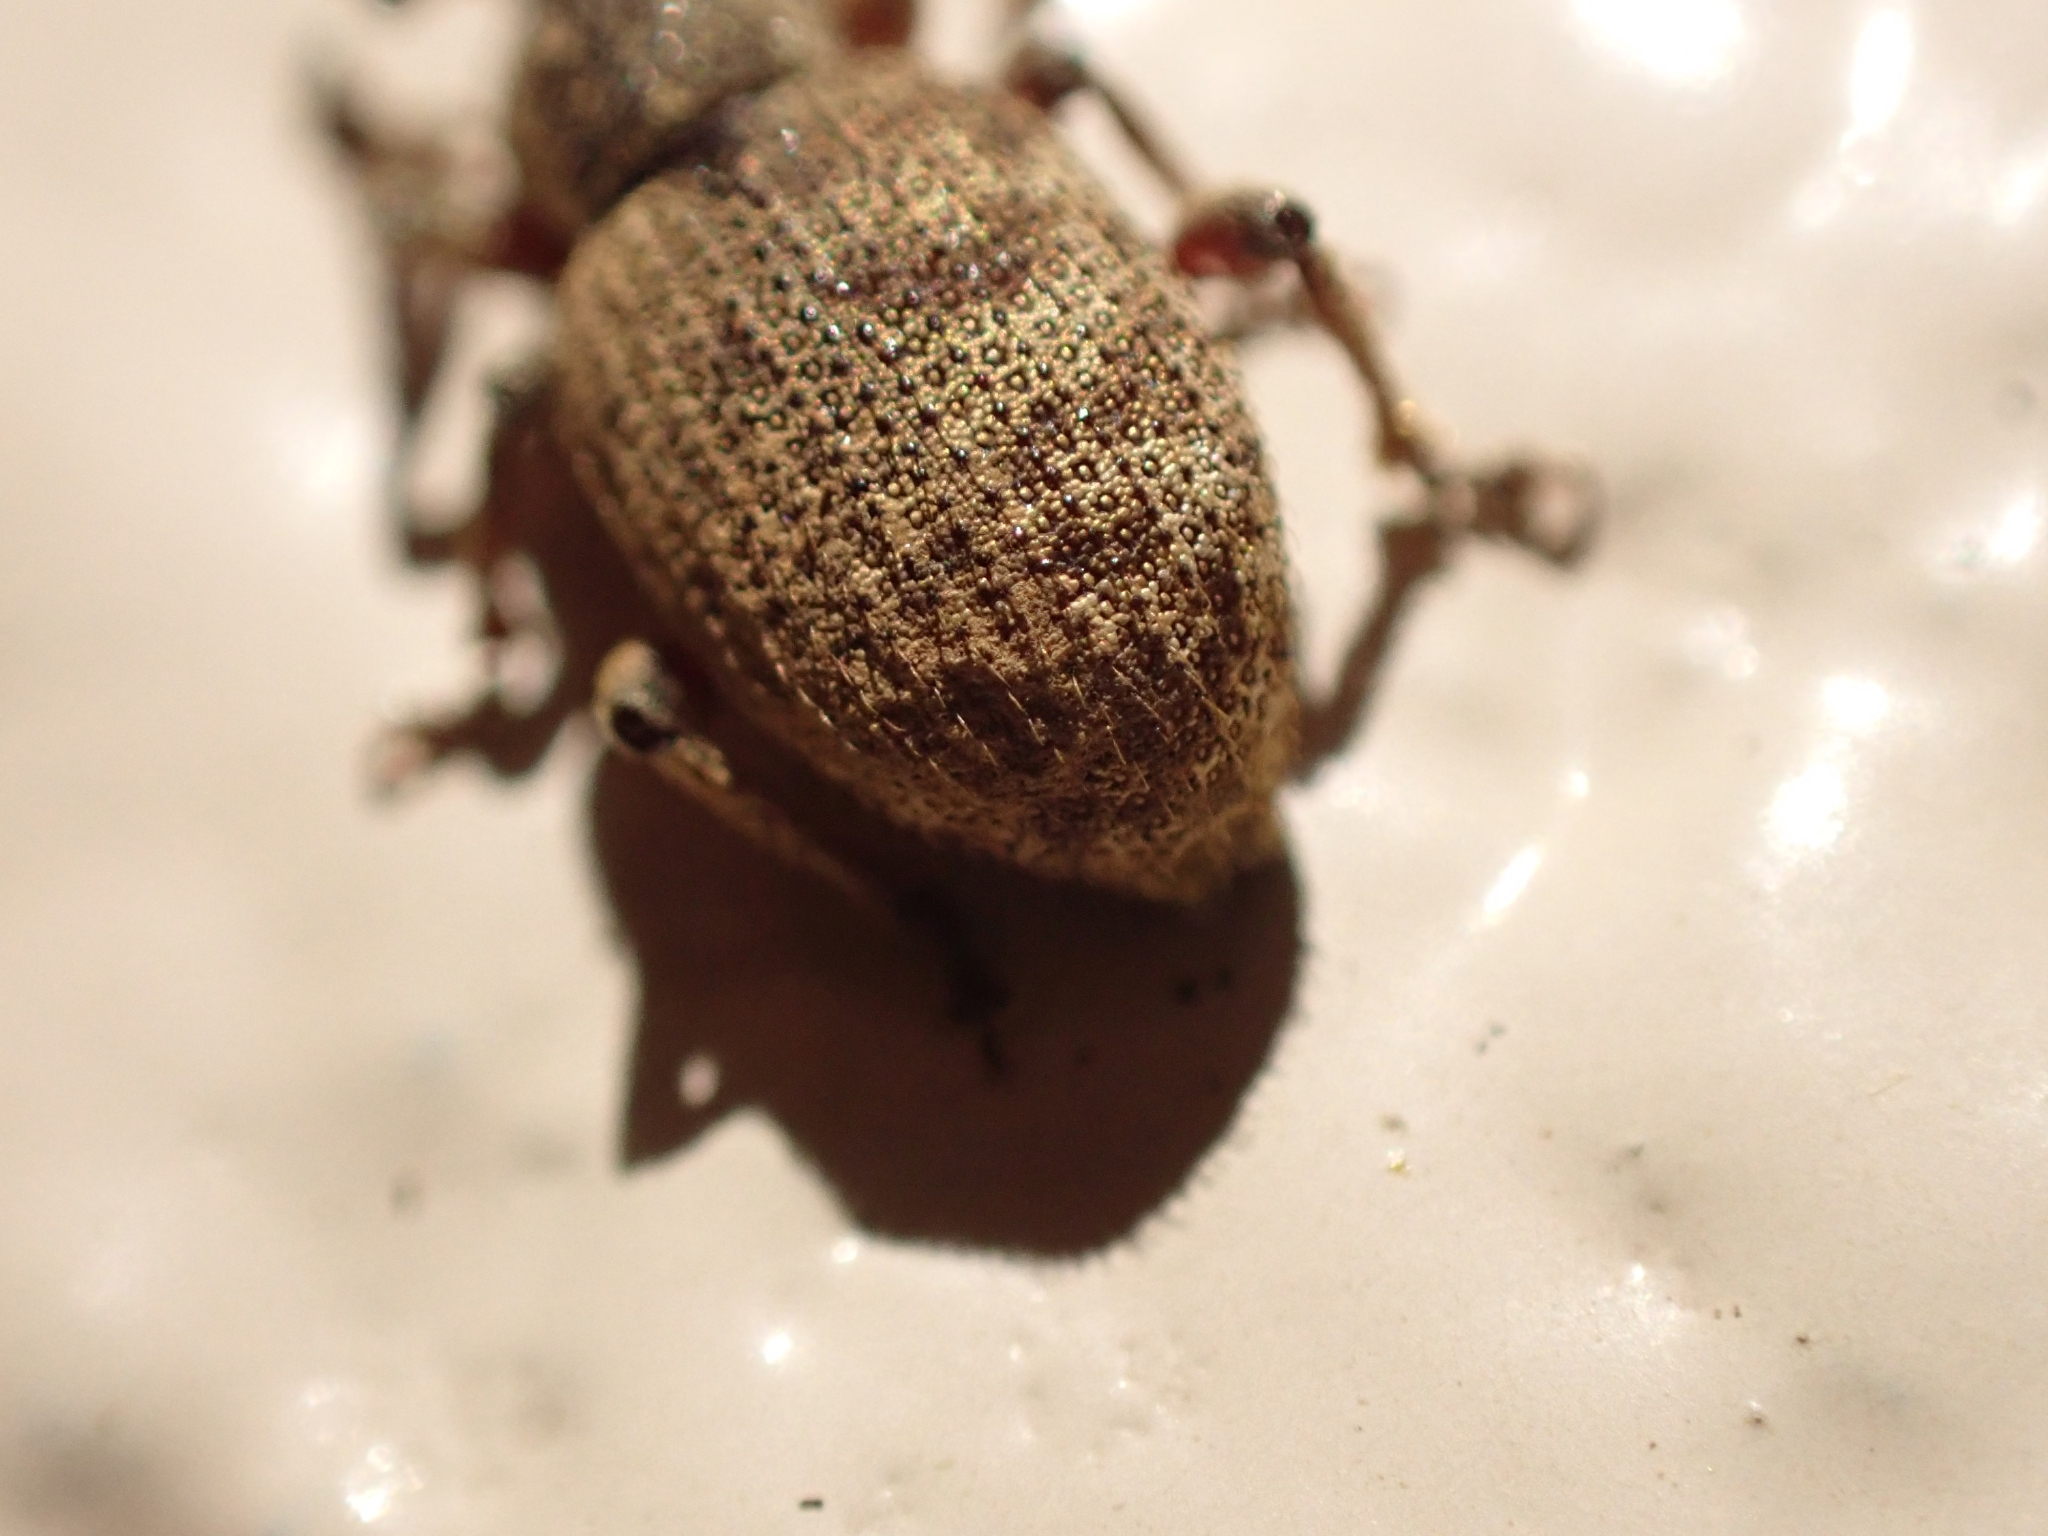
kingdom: Animalia
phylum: Arthropoda
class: Insecta
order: Coleoptera
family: Curculionidae
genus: Otiorhynchus
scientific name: Otiorhynchus singularis
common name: Clay-coloured weevil
